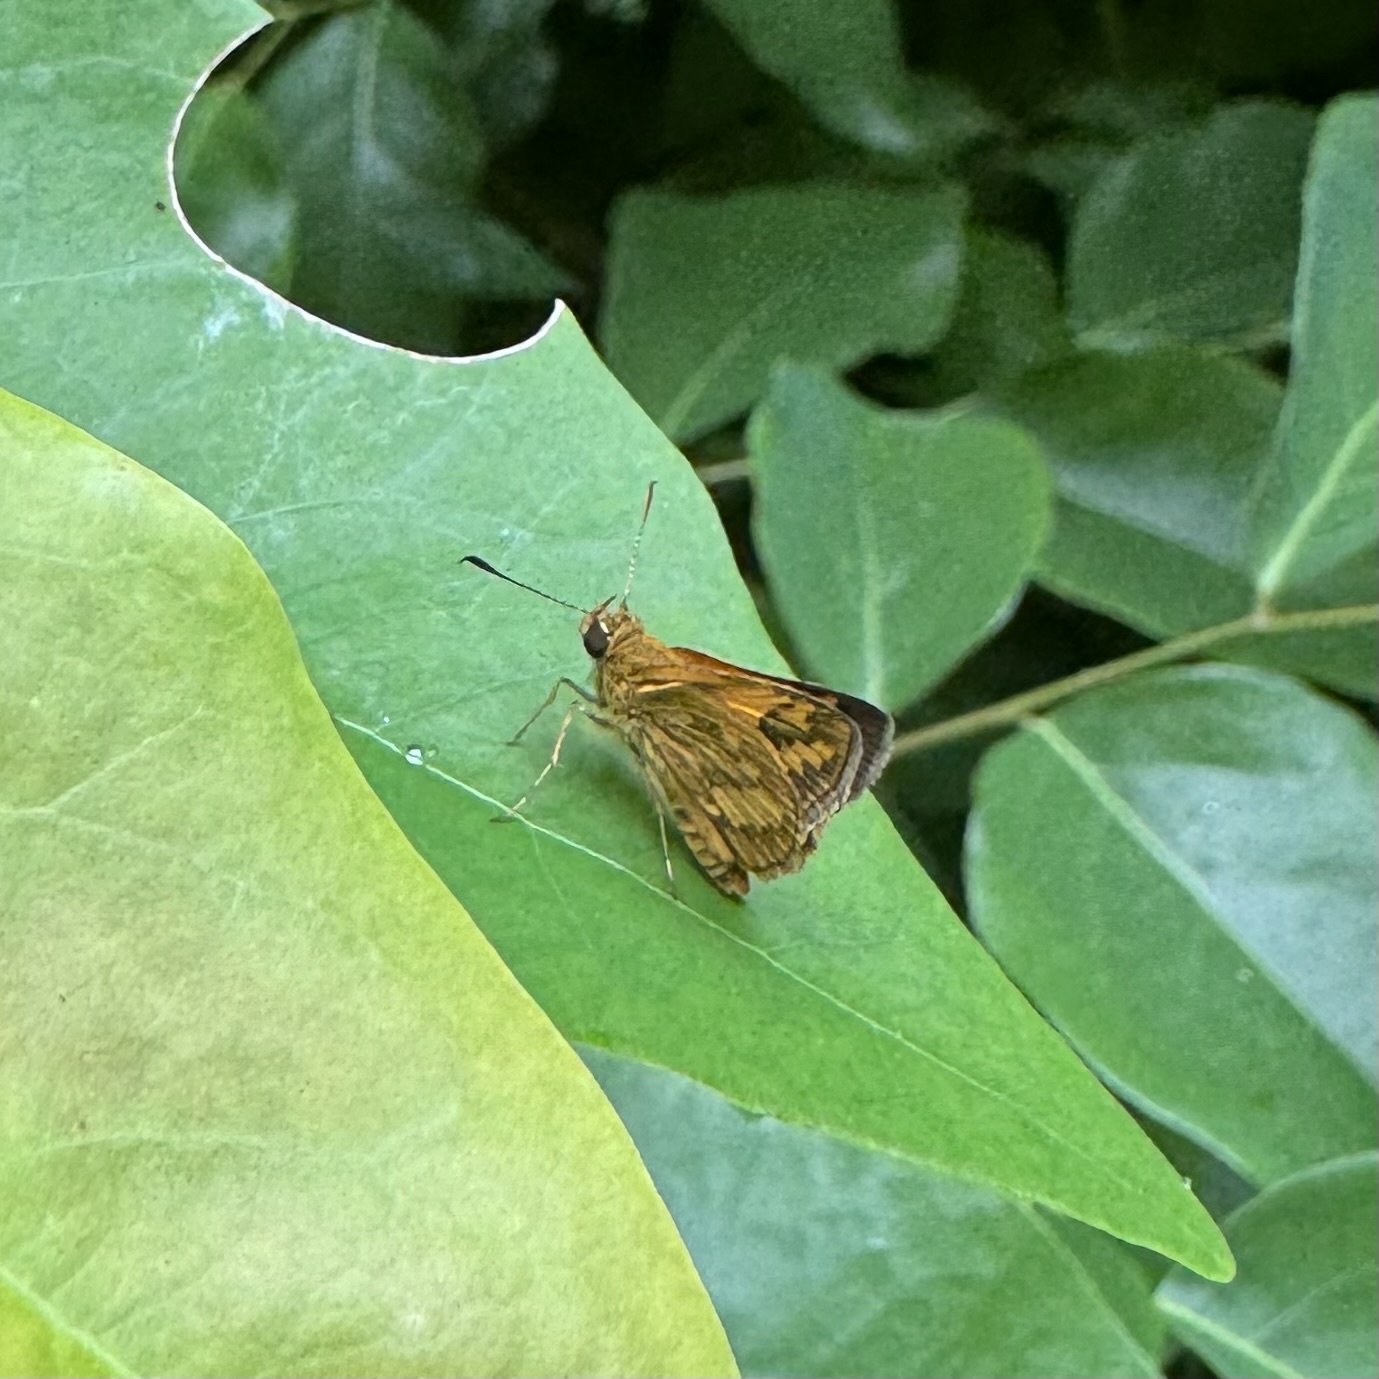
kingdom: Animalia
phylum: Arthropoda
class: Insecta
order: Lepidoptera
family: Hesperiidae
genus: Suniana
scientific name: Suniana sunias
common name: Wide-brand grass-dart
